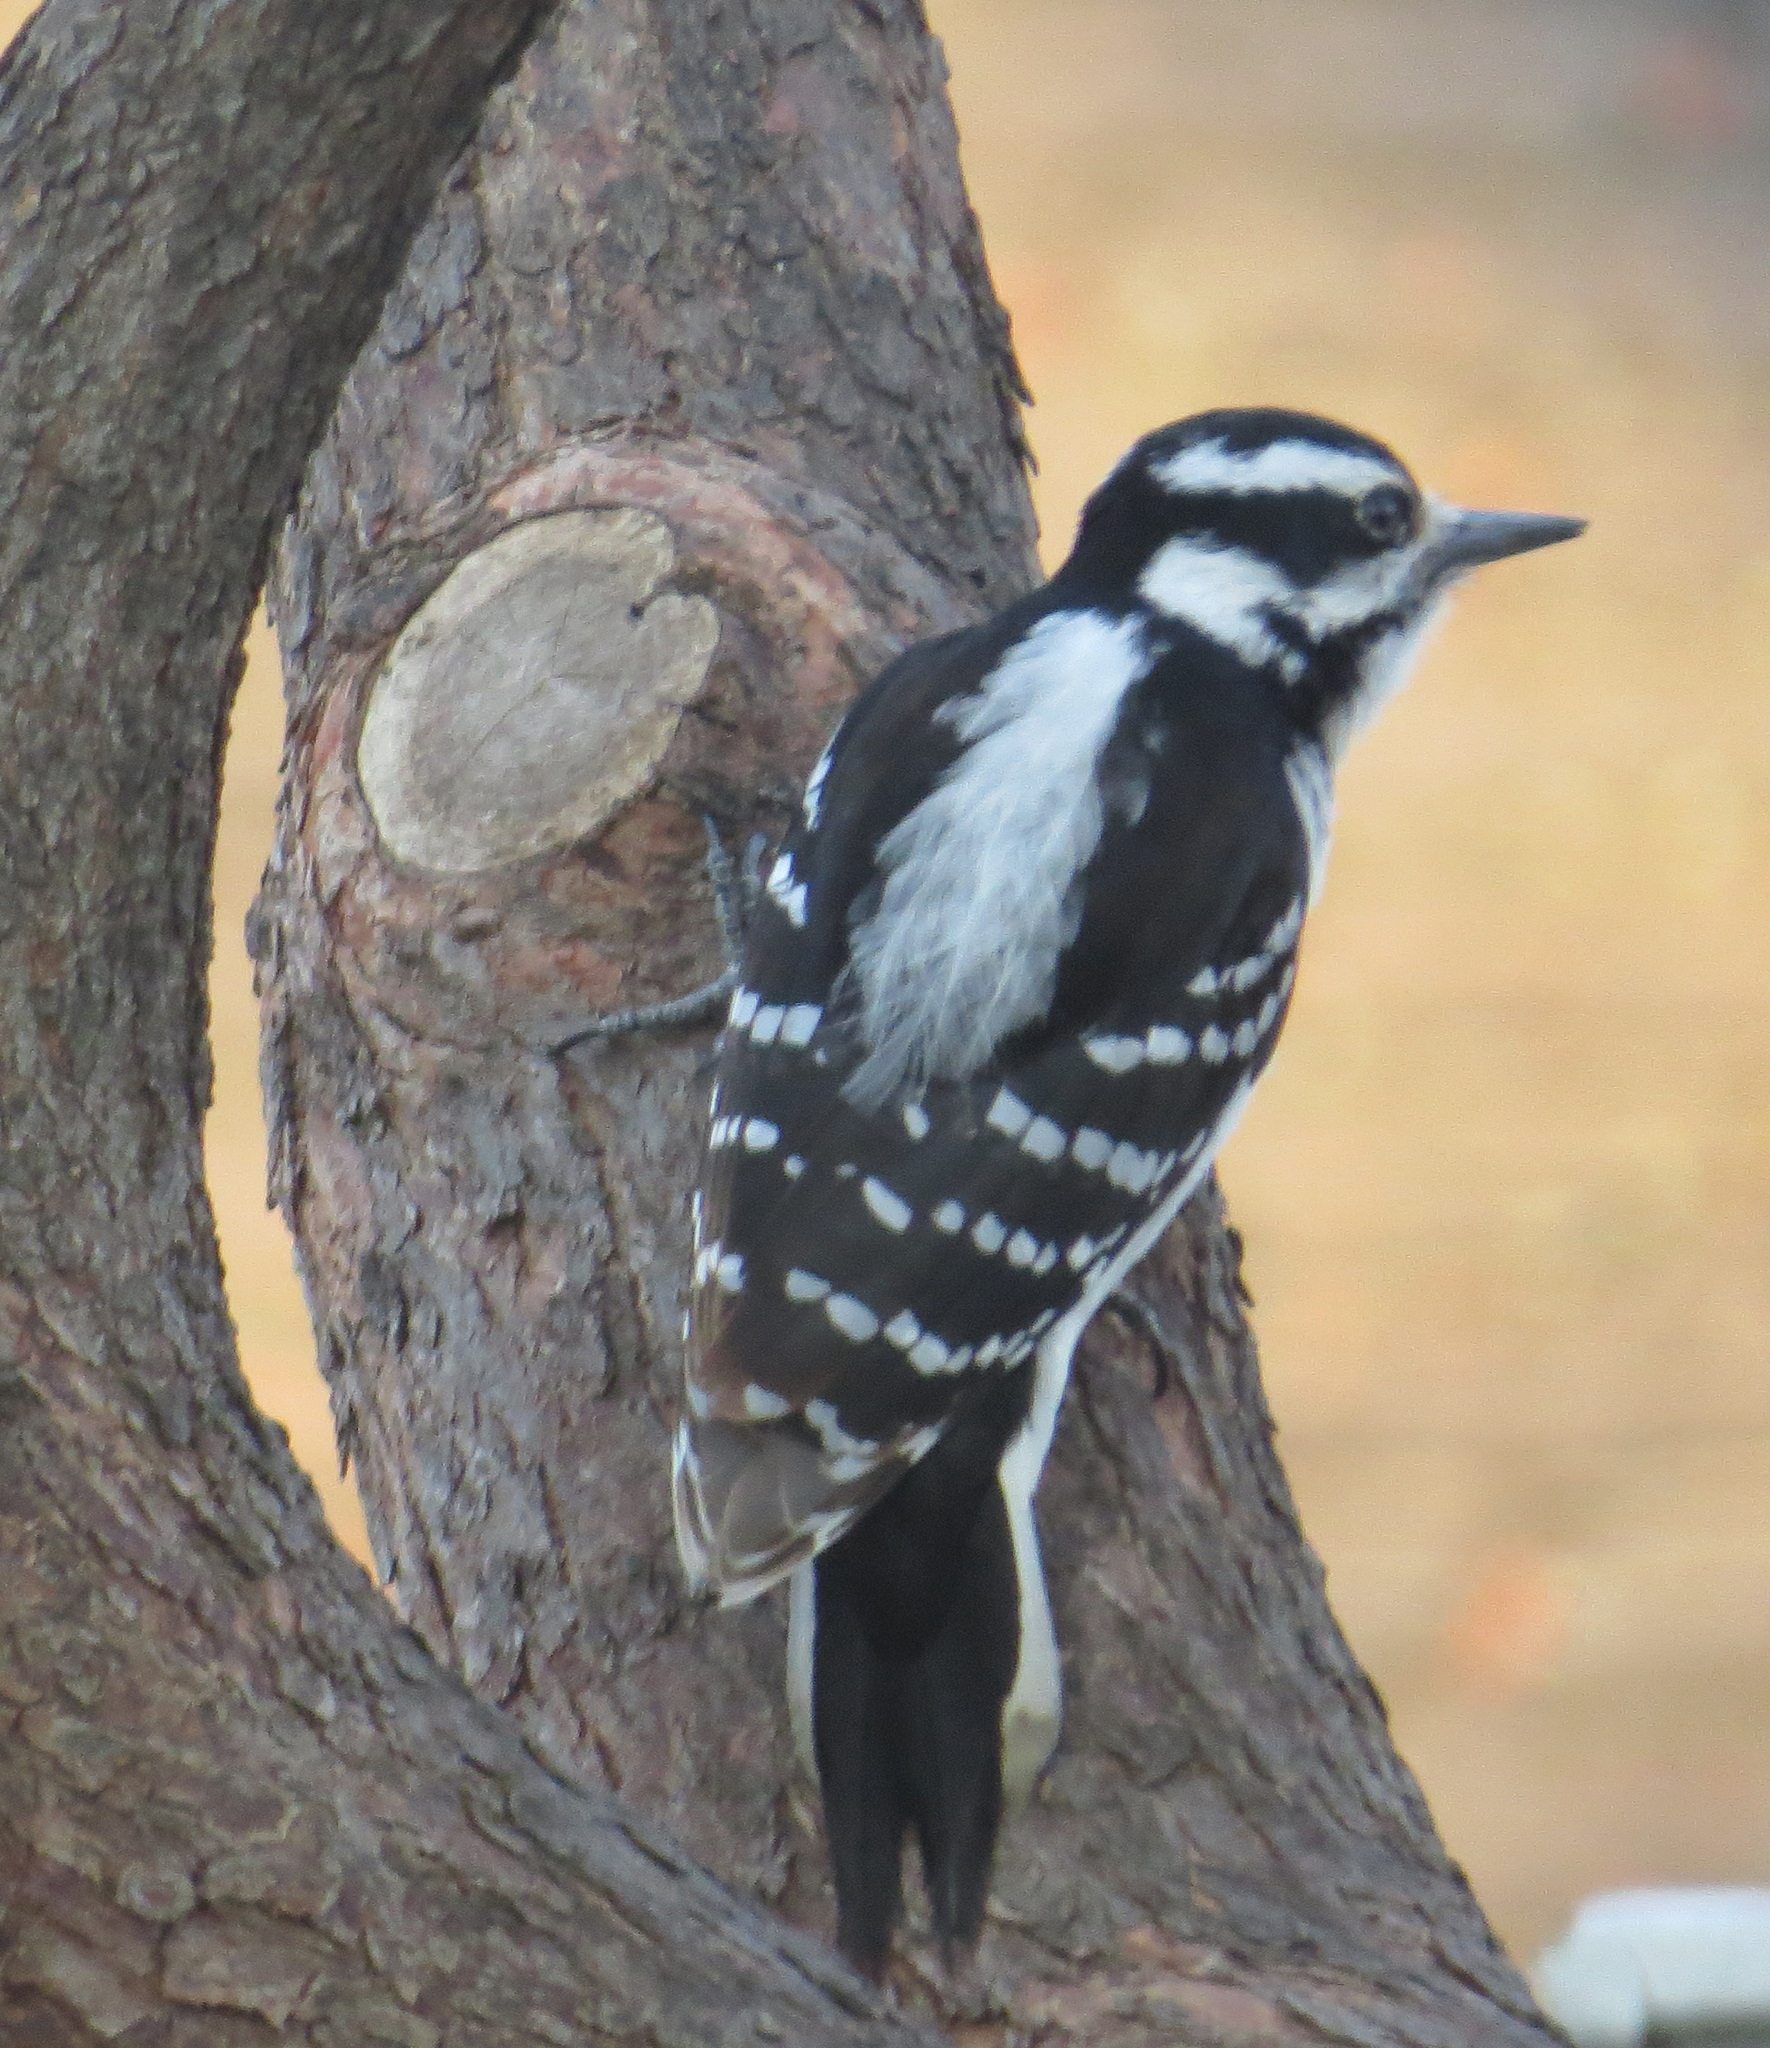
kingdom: Animalia
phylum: Chordata
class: Aves
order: Piciformes
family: Picidae
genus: Leuconotopicus
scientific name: Leuconotopicus villosus
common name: Hairy woodpecker
